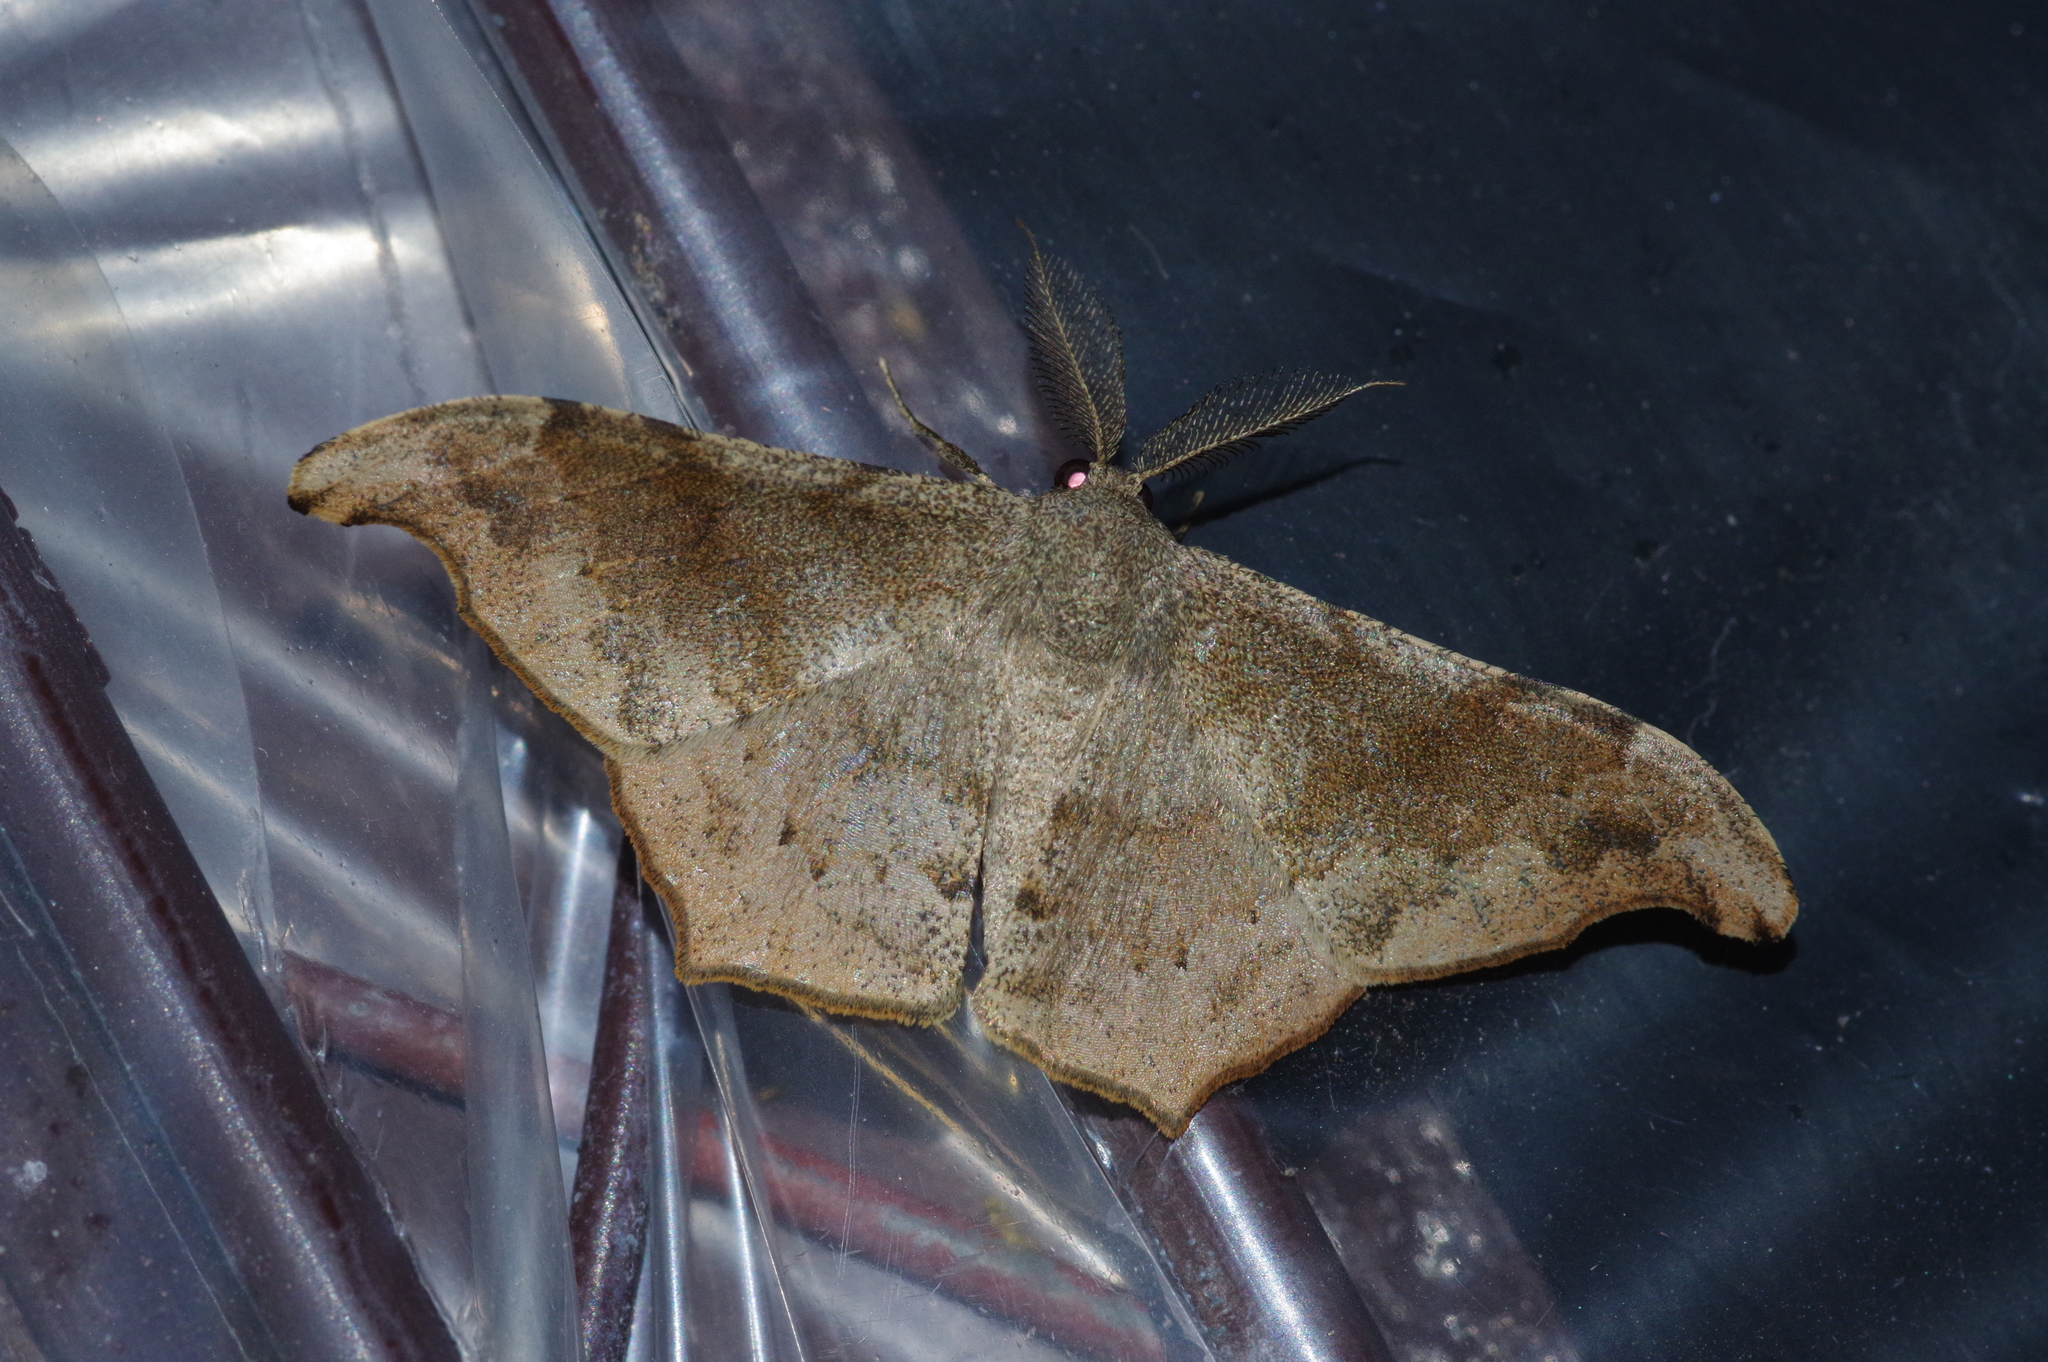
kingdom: Animalia
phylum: Arthropoda
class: Insecta
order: Lepidoptera
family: Geometridae
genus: Hyposidra
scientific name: Hyposidra talaca
